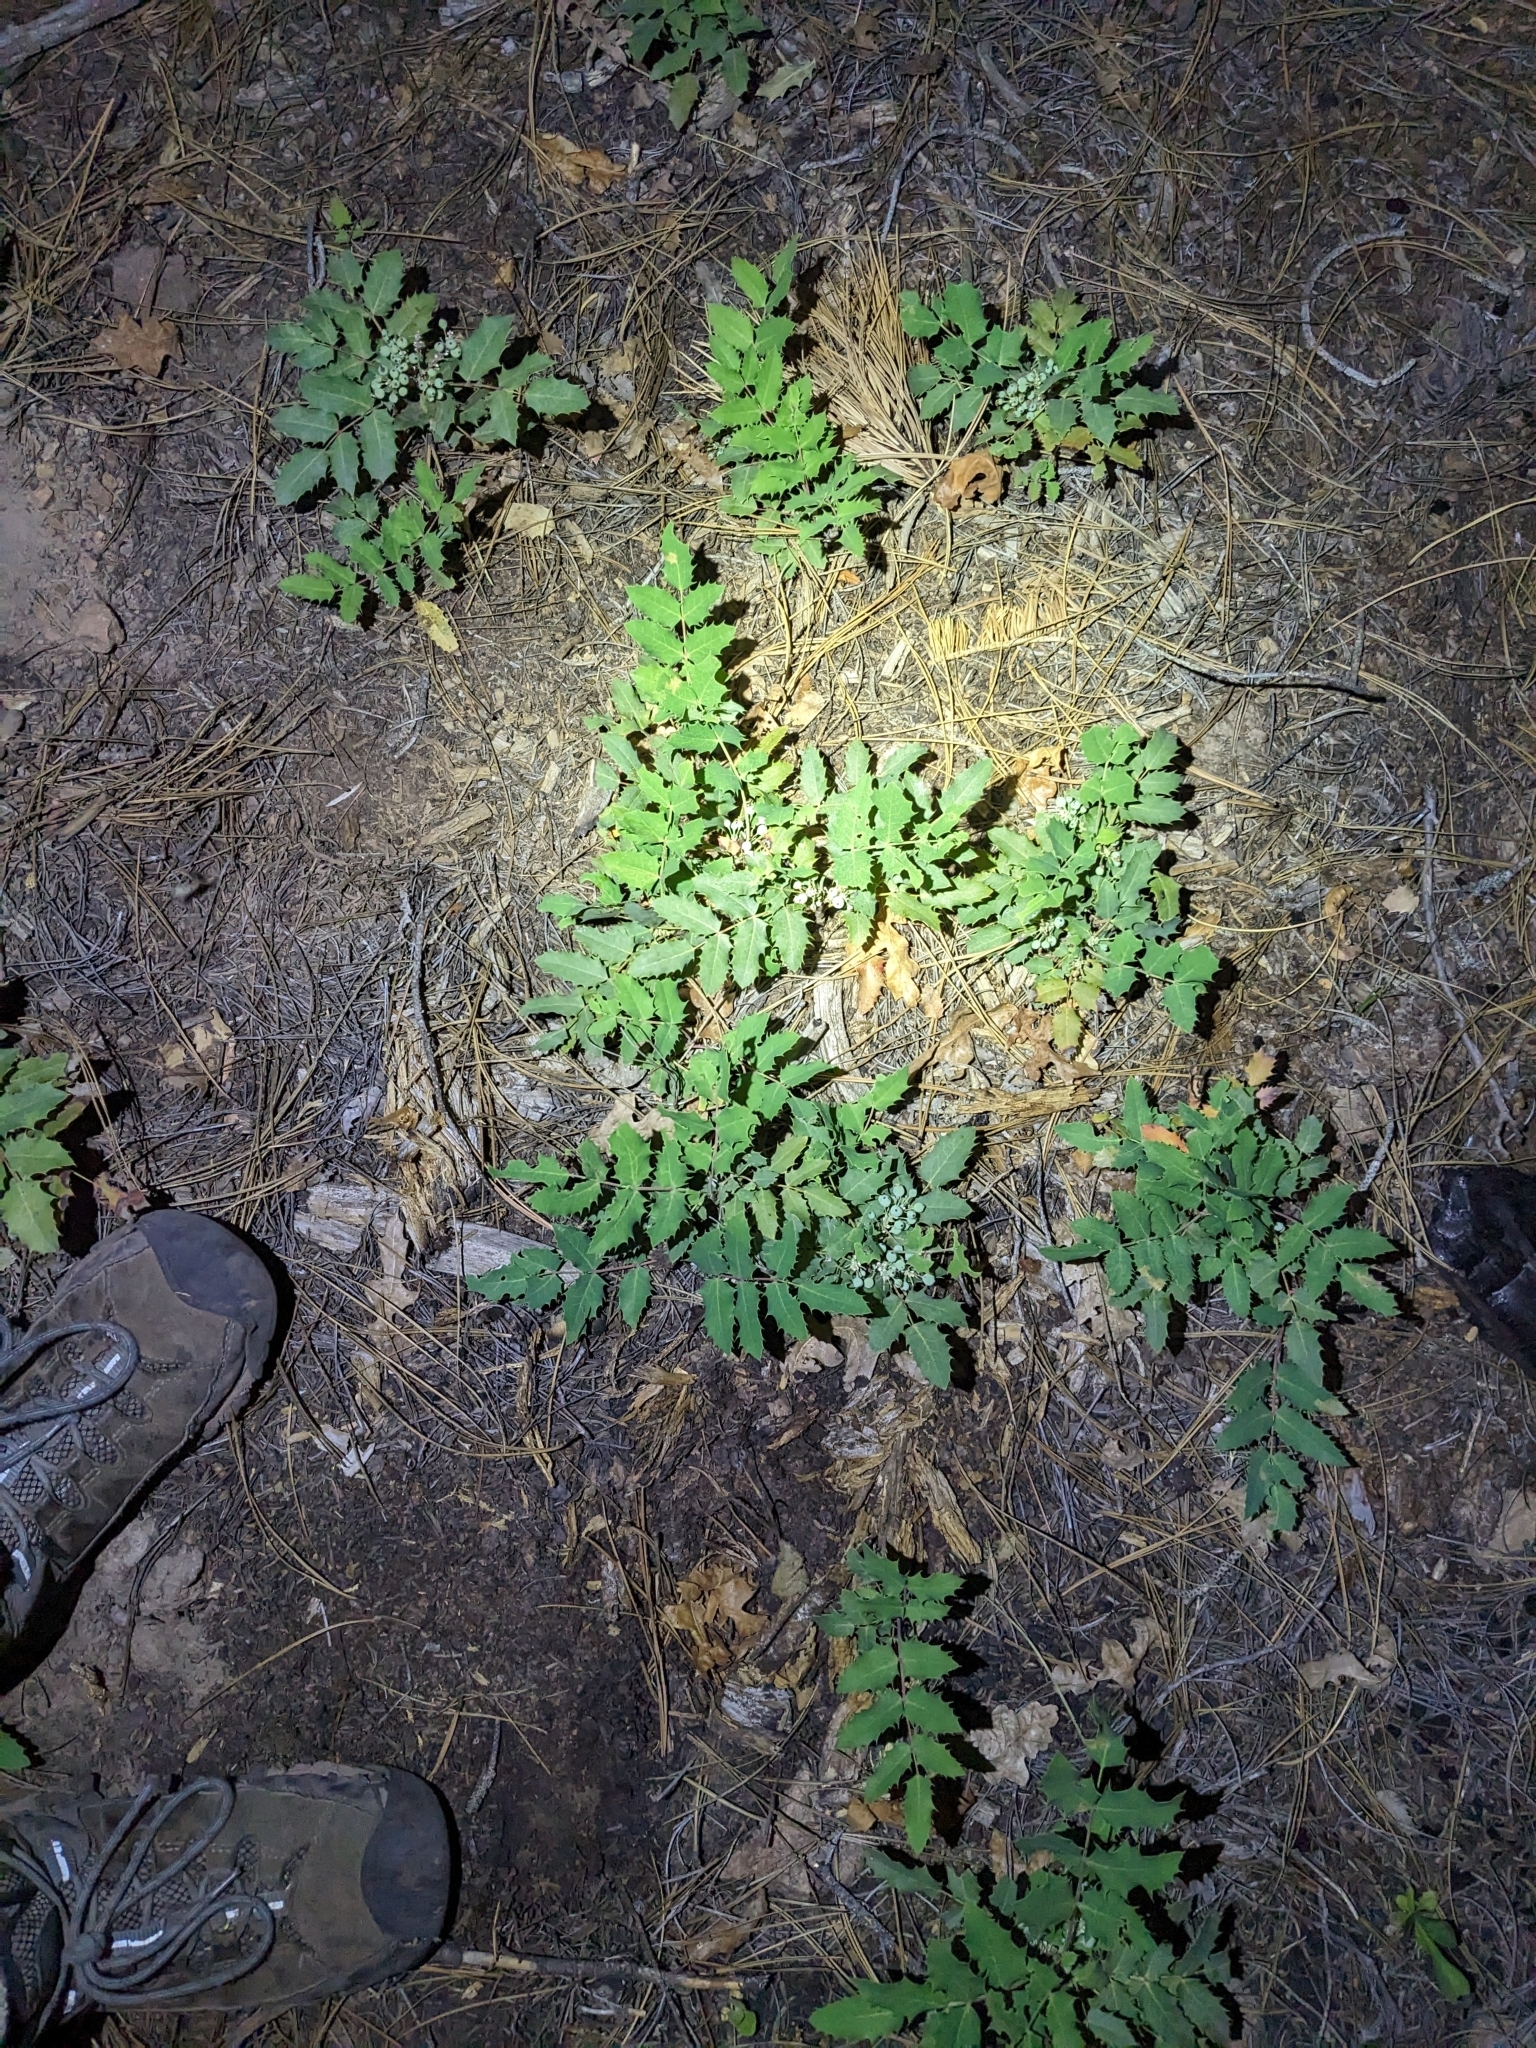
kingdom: Plantae
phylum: Tracheophyta
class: Magnoliopsida
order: Ranunculales
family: Berberidaceae
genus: Mahonia
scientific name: Mahonia repens
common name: Creeping oregon-grape
